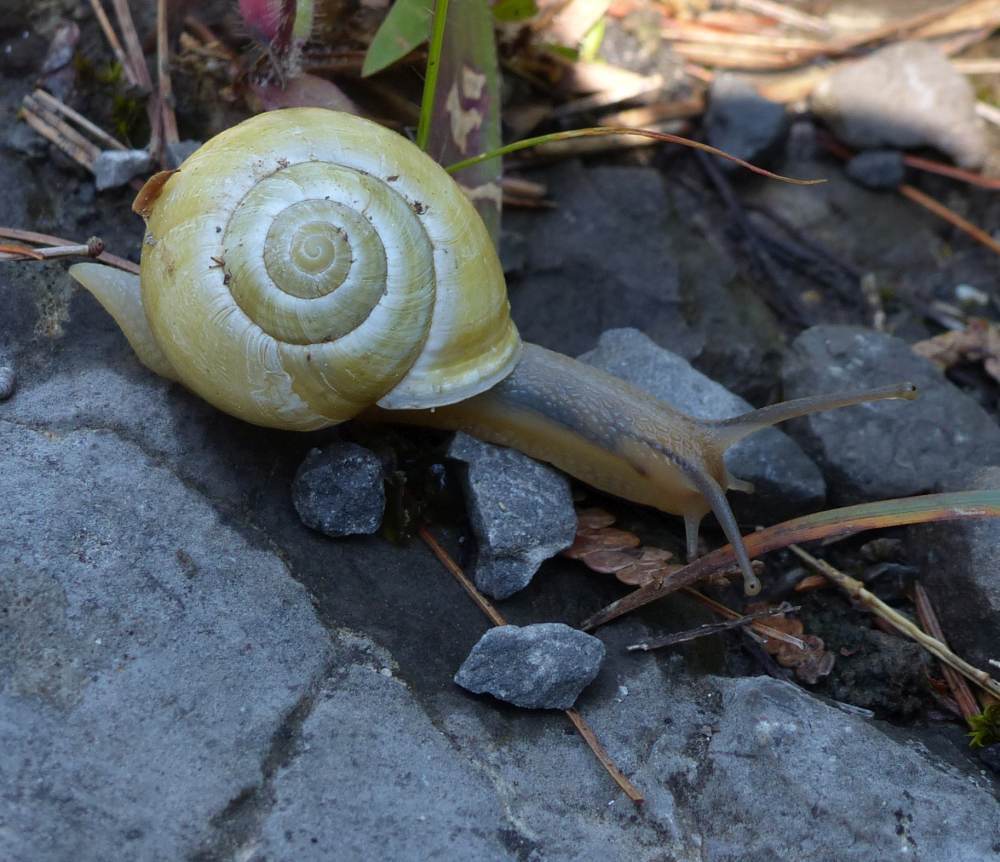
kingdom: Animalia
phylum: Mollusca
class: Gastropoda
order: Stylommatophora
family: Helicidae
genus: Cepaea
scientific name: Cepaea hortensis
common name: White-lip gardensnail
